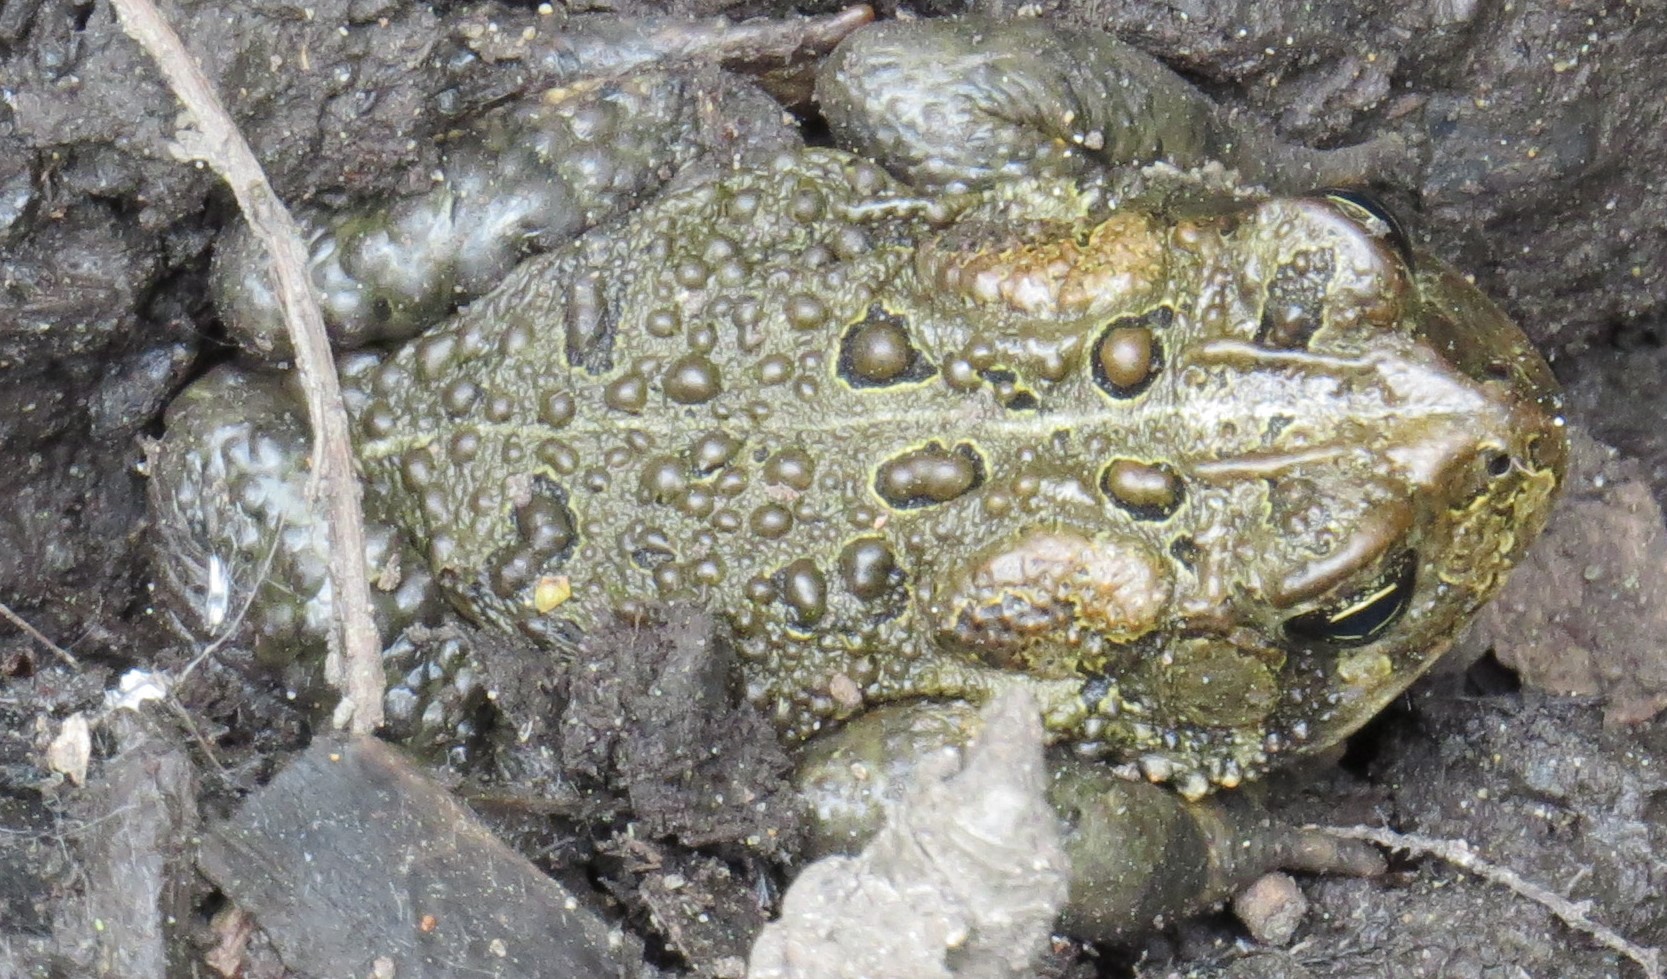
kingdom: Animalia
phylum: Chordata
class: Amphibia
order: Anura
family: Bufonidae
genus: Anaxyrus
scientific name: Anaxyrus americanus
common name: American toad
